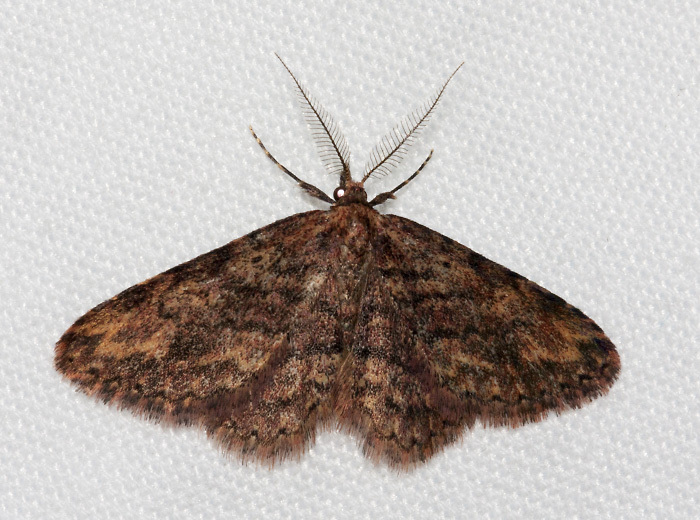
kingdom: Animalia
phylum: Arthropoda
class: Insecta
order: Lepidoptera
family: Erebidae
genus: Mycterophora
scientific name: Mycterophora rubricans
